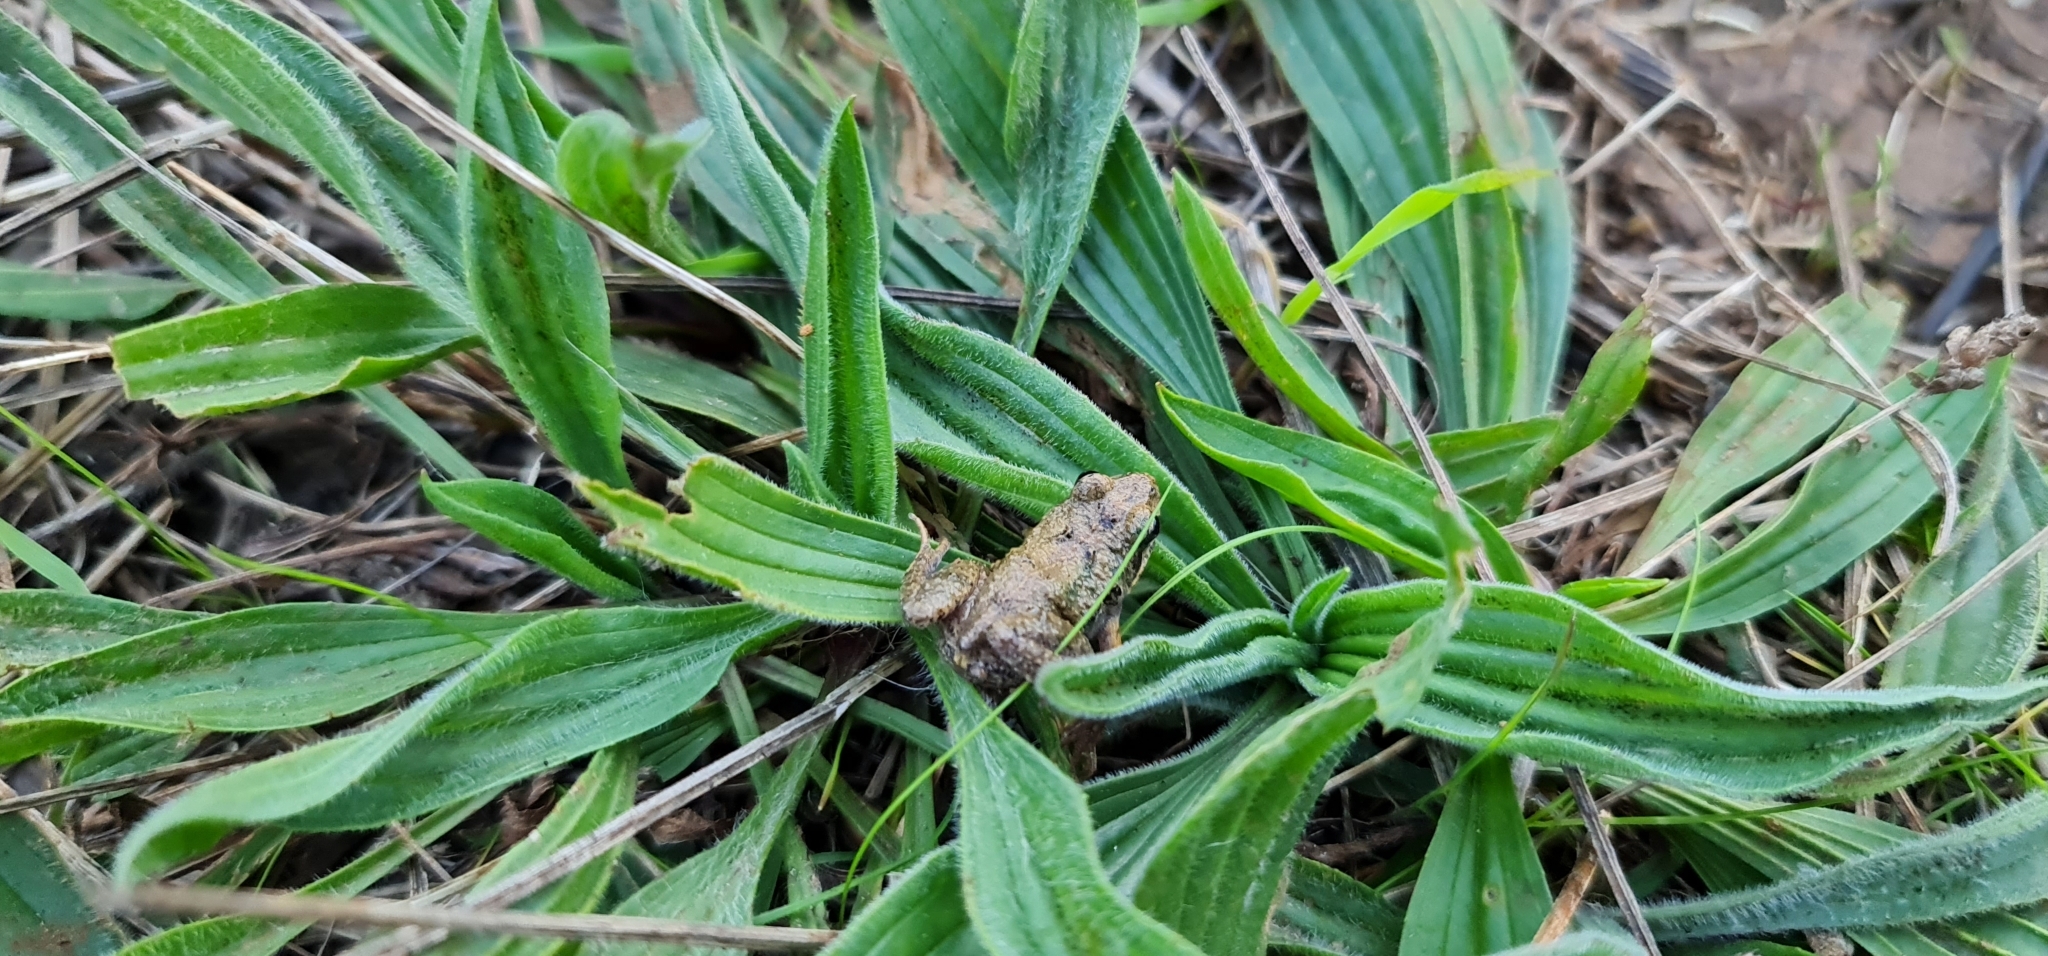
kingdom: Animalia
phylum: Chordata
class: Amphibia
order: Anura
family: Myobatrachidae
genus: Crinia
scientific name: Crinia signifera
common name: Brown froglet
